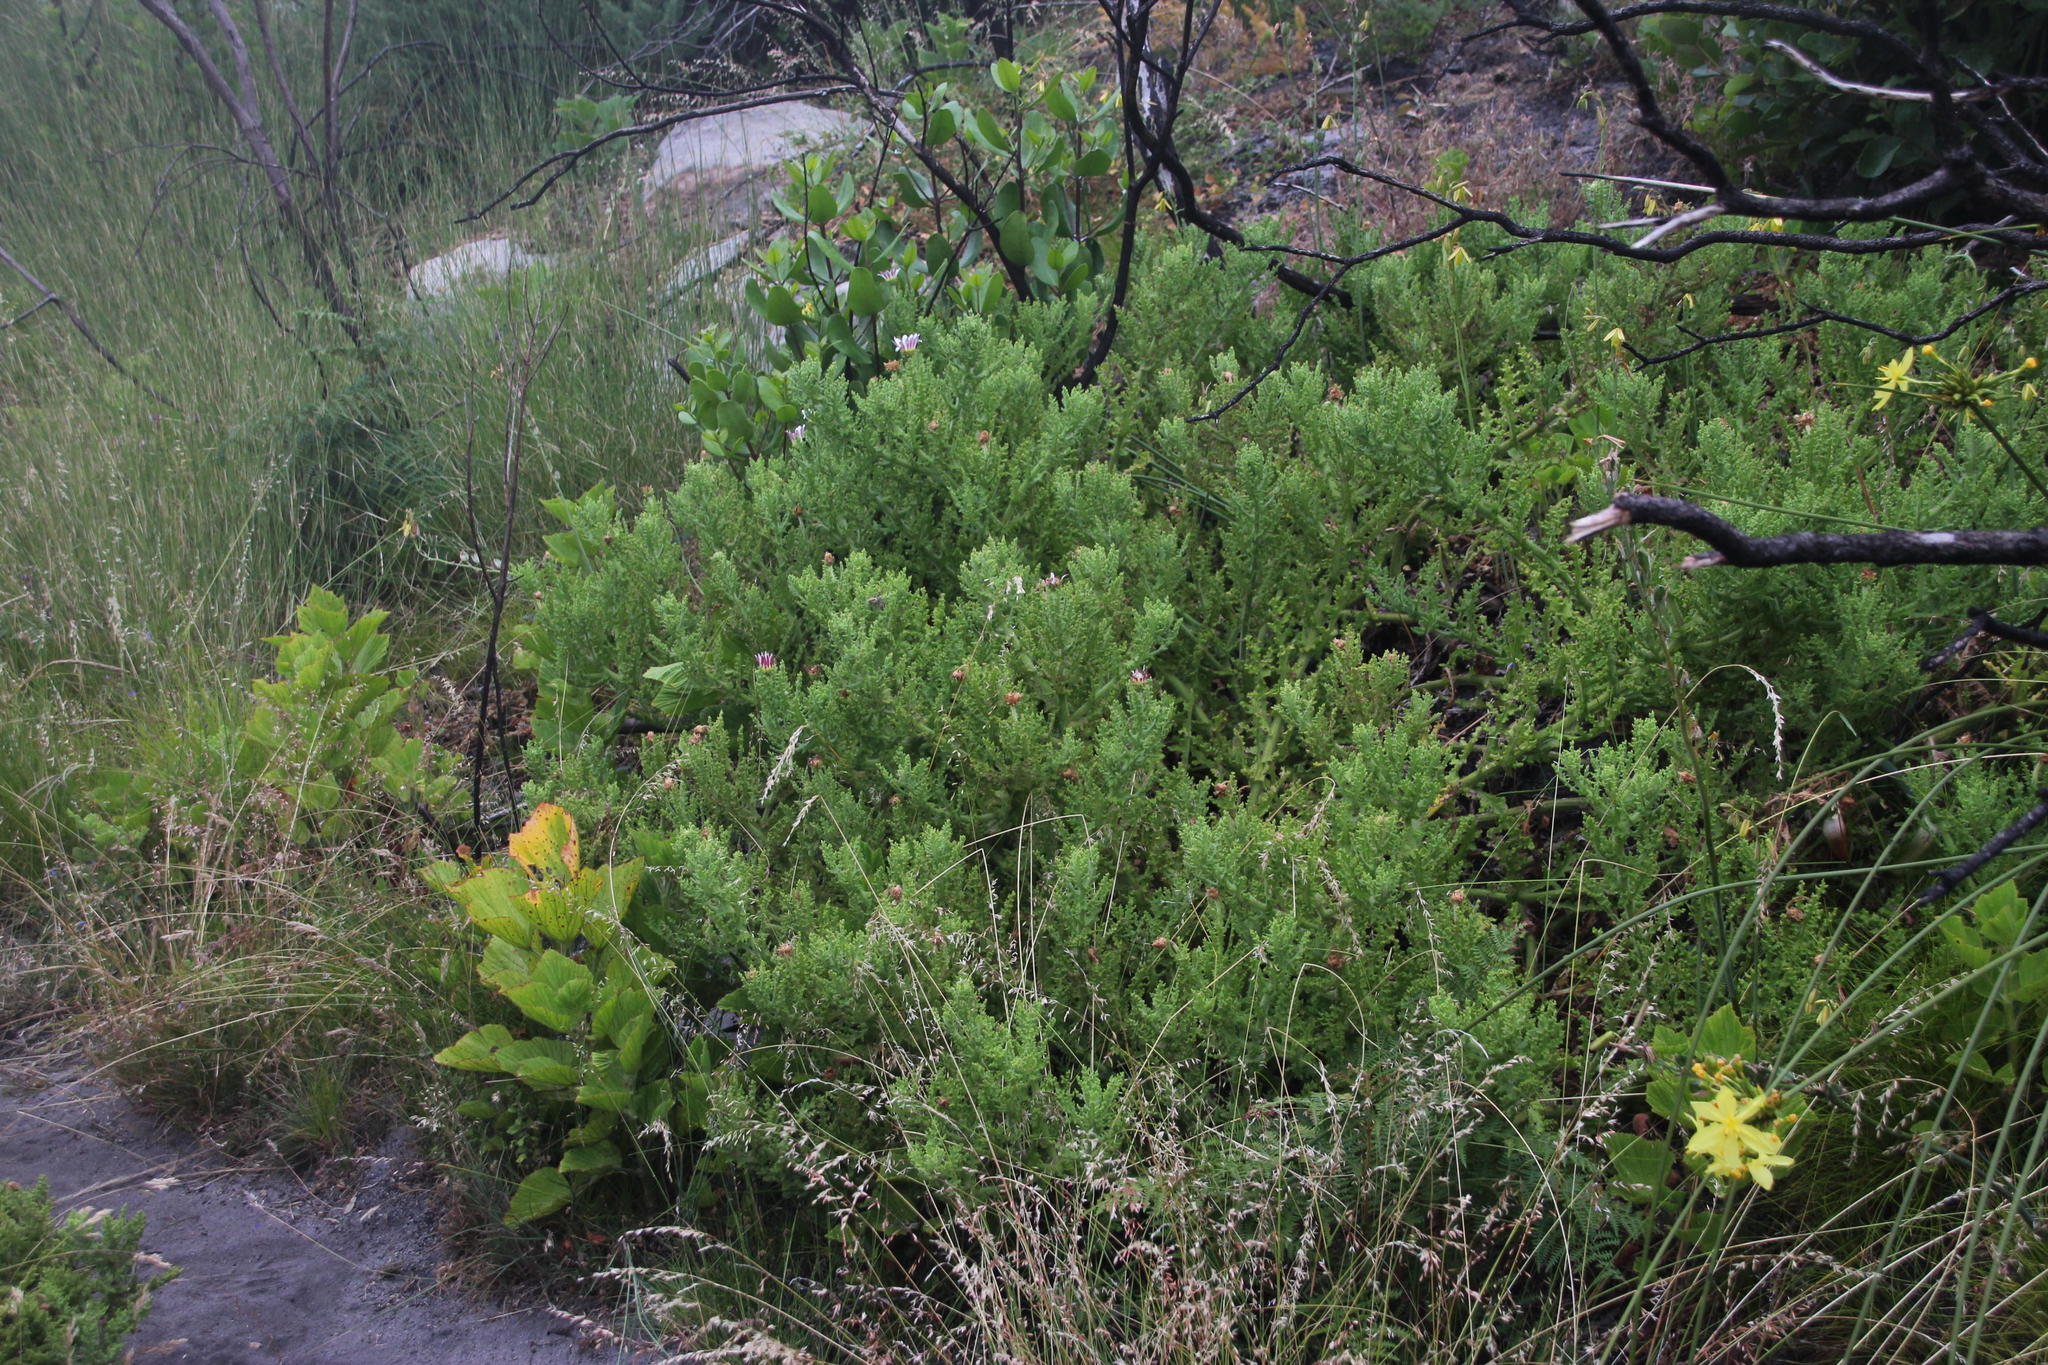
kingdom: Plantae
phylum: Tracheophyta
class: Magnoliopsida
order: Asterales
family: Asteraceae
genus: Arctotis
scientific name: Arctotis aspera
